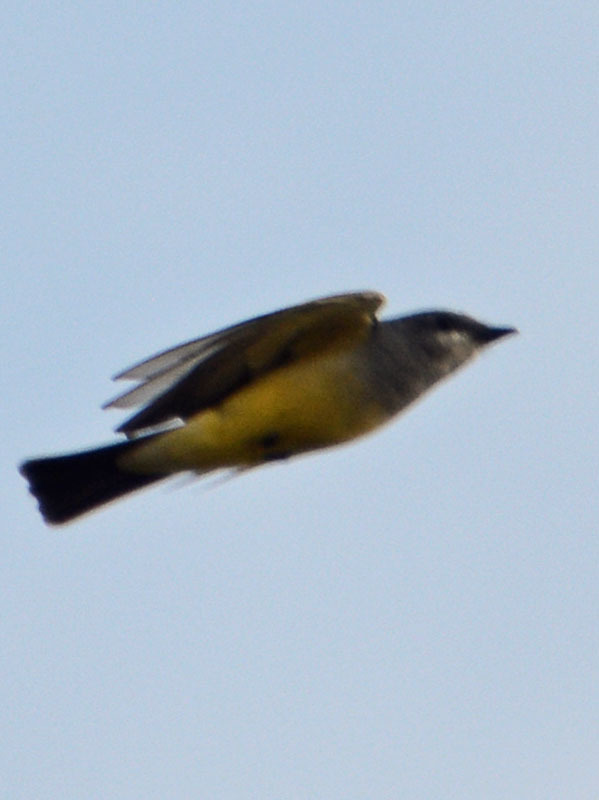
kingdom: Animalia
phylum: Chordata
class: Aves
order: Passeriformes
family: Tyrannidae
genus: Tyrannus
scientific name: Tyrannus vociferans
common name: Cassin's kingbird
